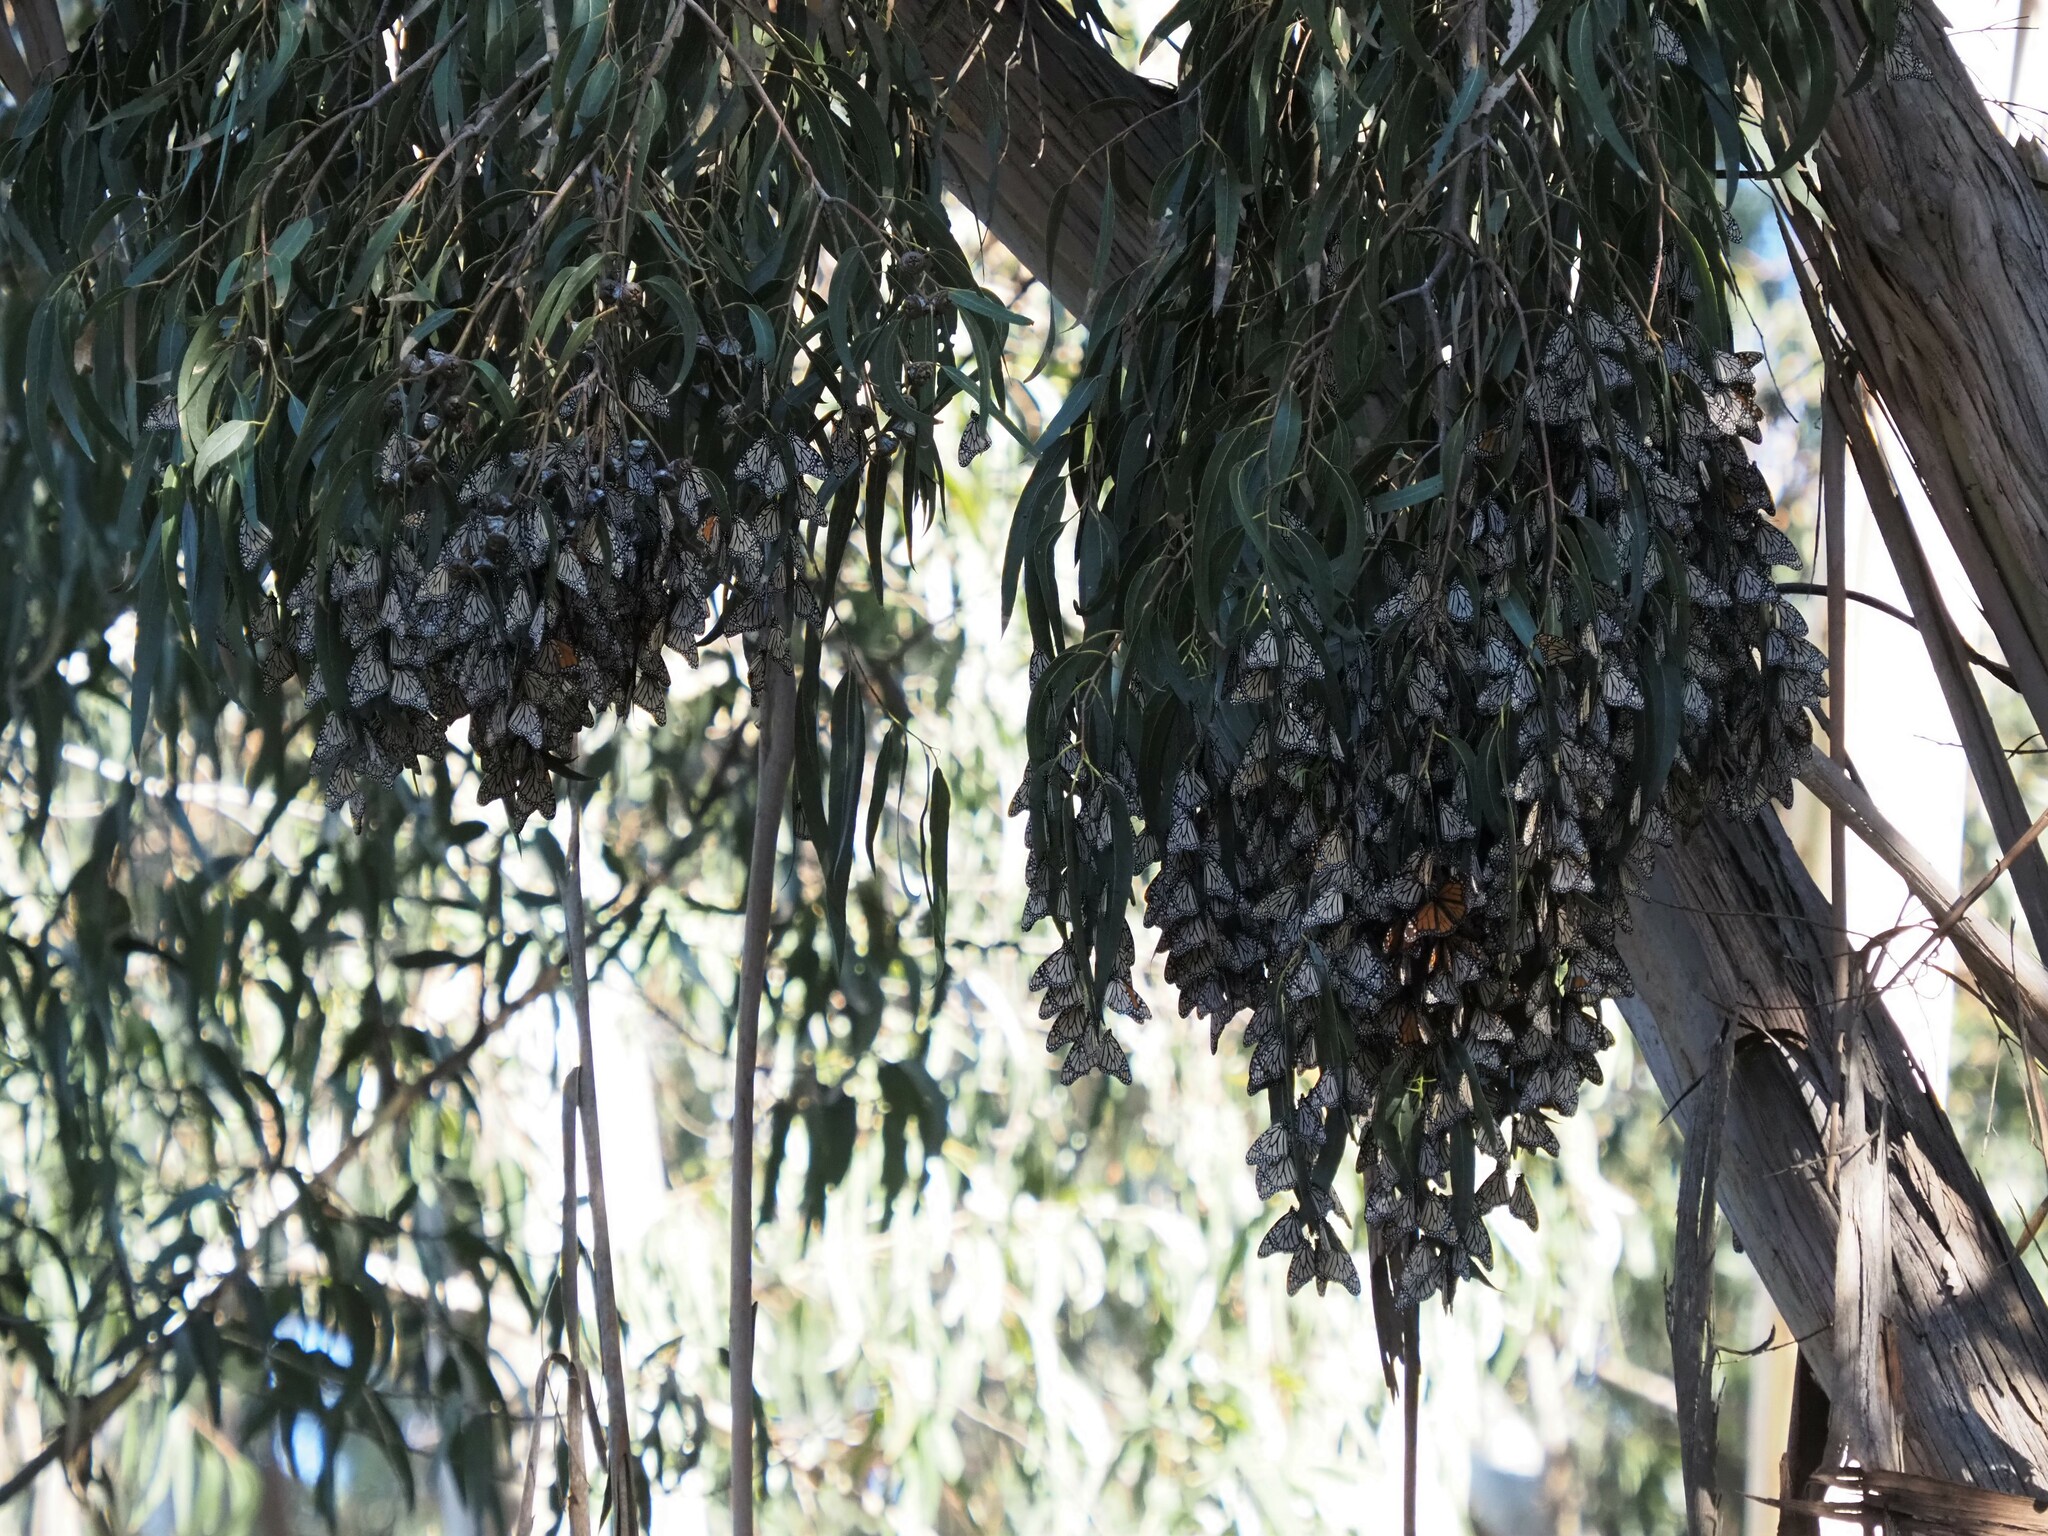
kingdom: Animalia
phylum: Arthropoda
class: Insecta
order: Lepidoptera
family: Nymphalidae
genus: Danaus
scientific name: Danaus plexippus
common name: Monarch
